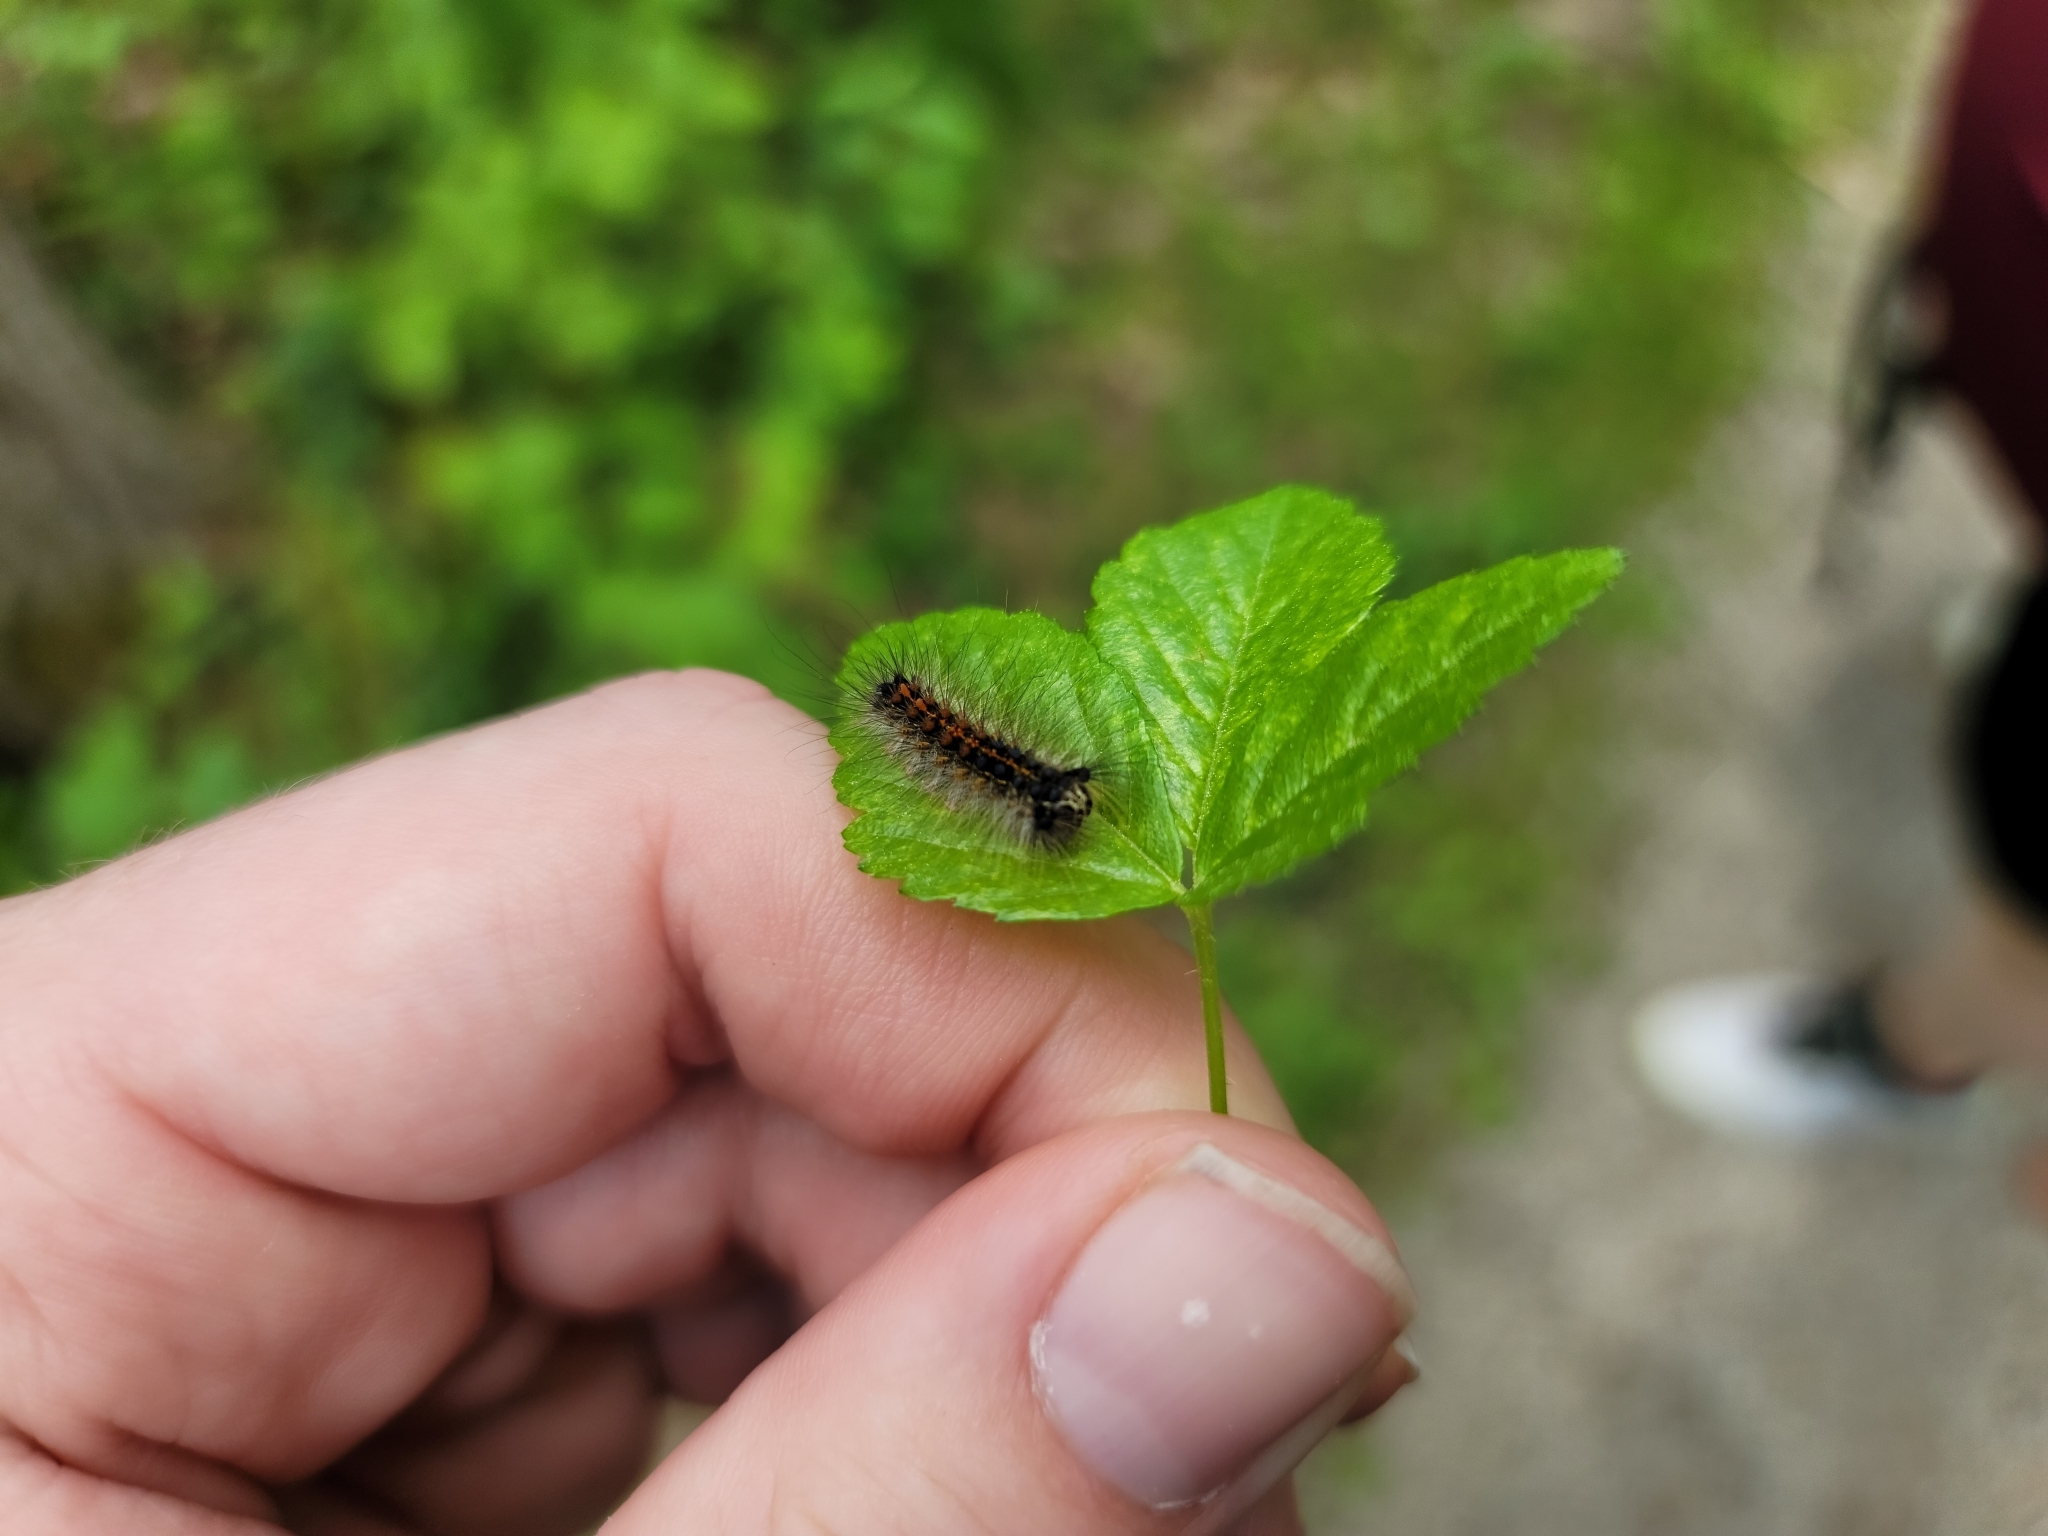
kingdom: Animalia
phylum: Arthropoda
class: Insecta
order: Lepidoptera
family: Erebidae
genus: Lymantria
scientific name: Lymantria dispar
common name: Gypsy moth
